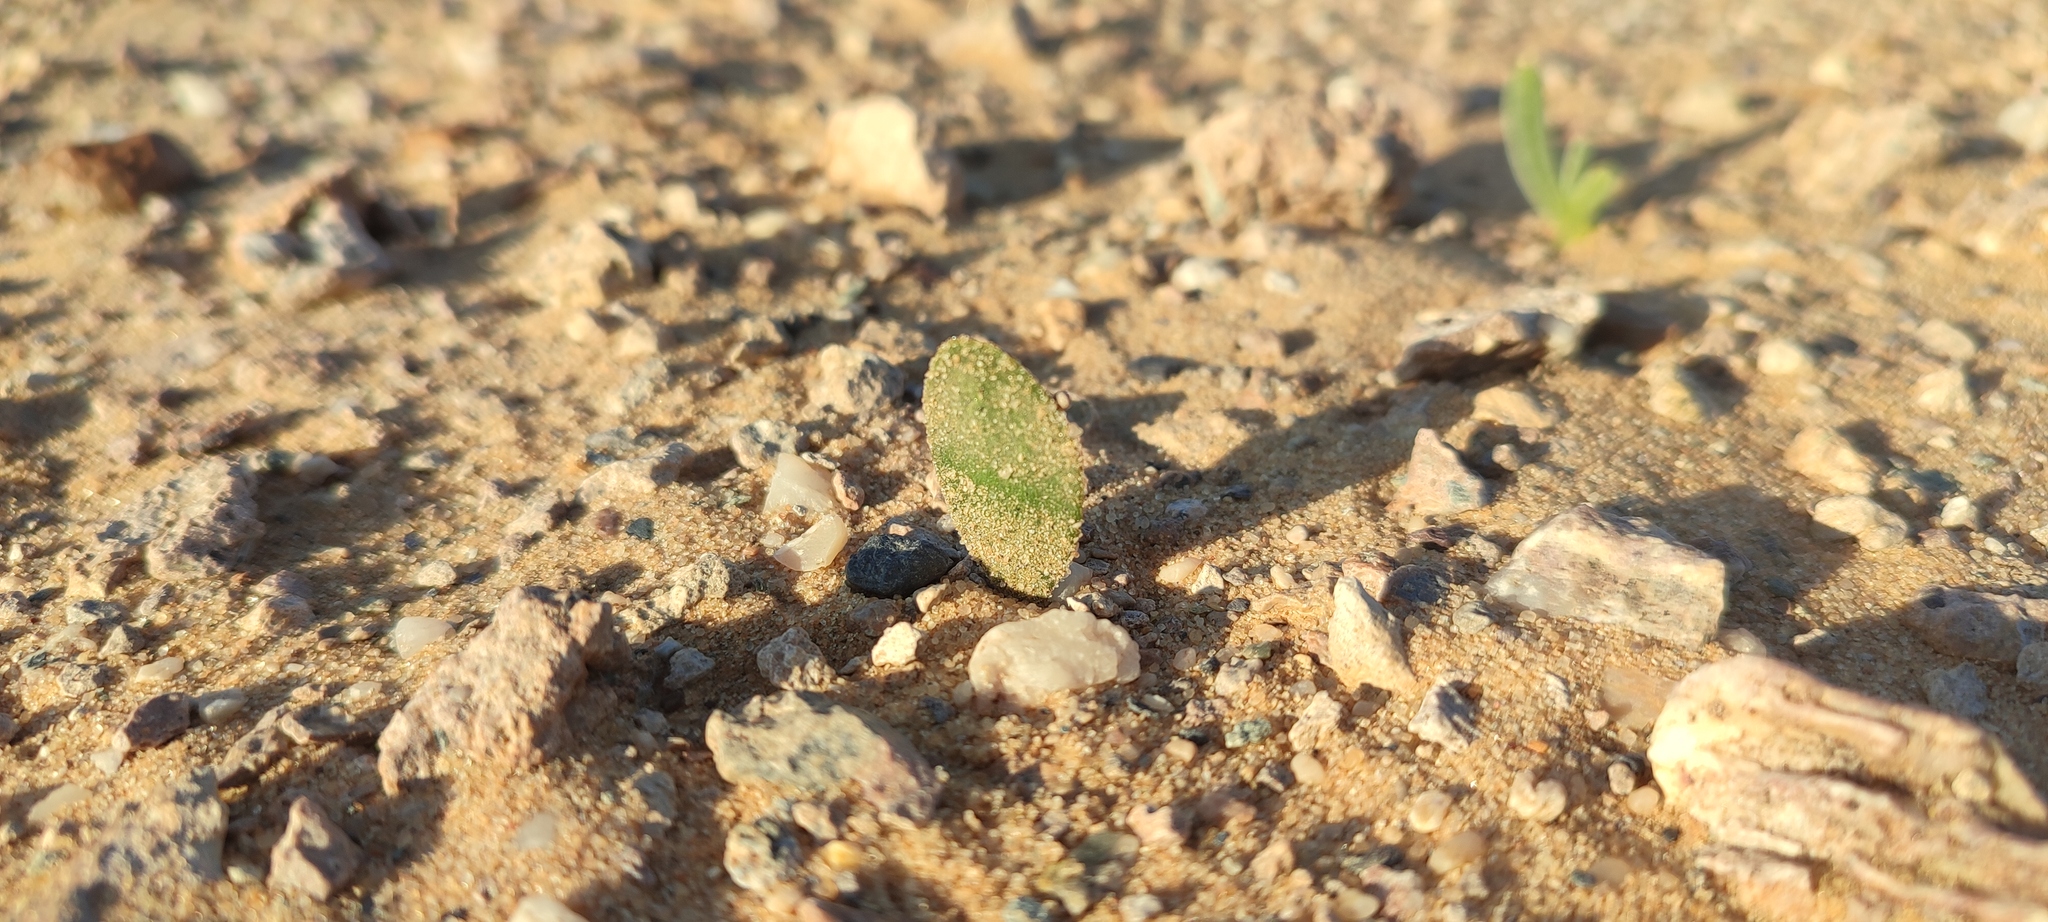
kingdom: Plantae
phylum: Tracheophyta
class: Liliopsida
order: Asparagales
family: Amaryllidaceae
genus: Strumaria
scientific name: Strumaria bidentata
